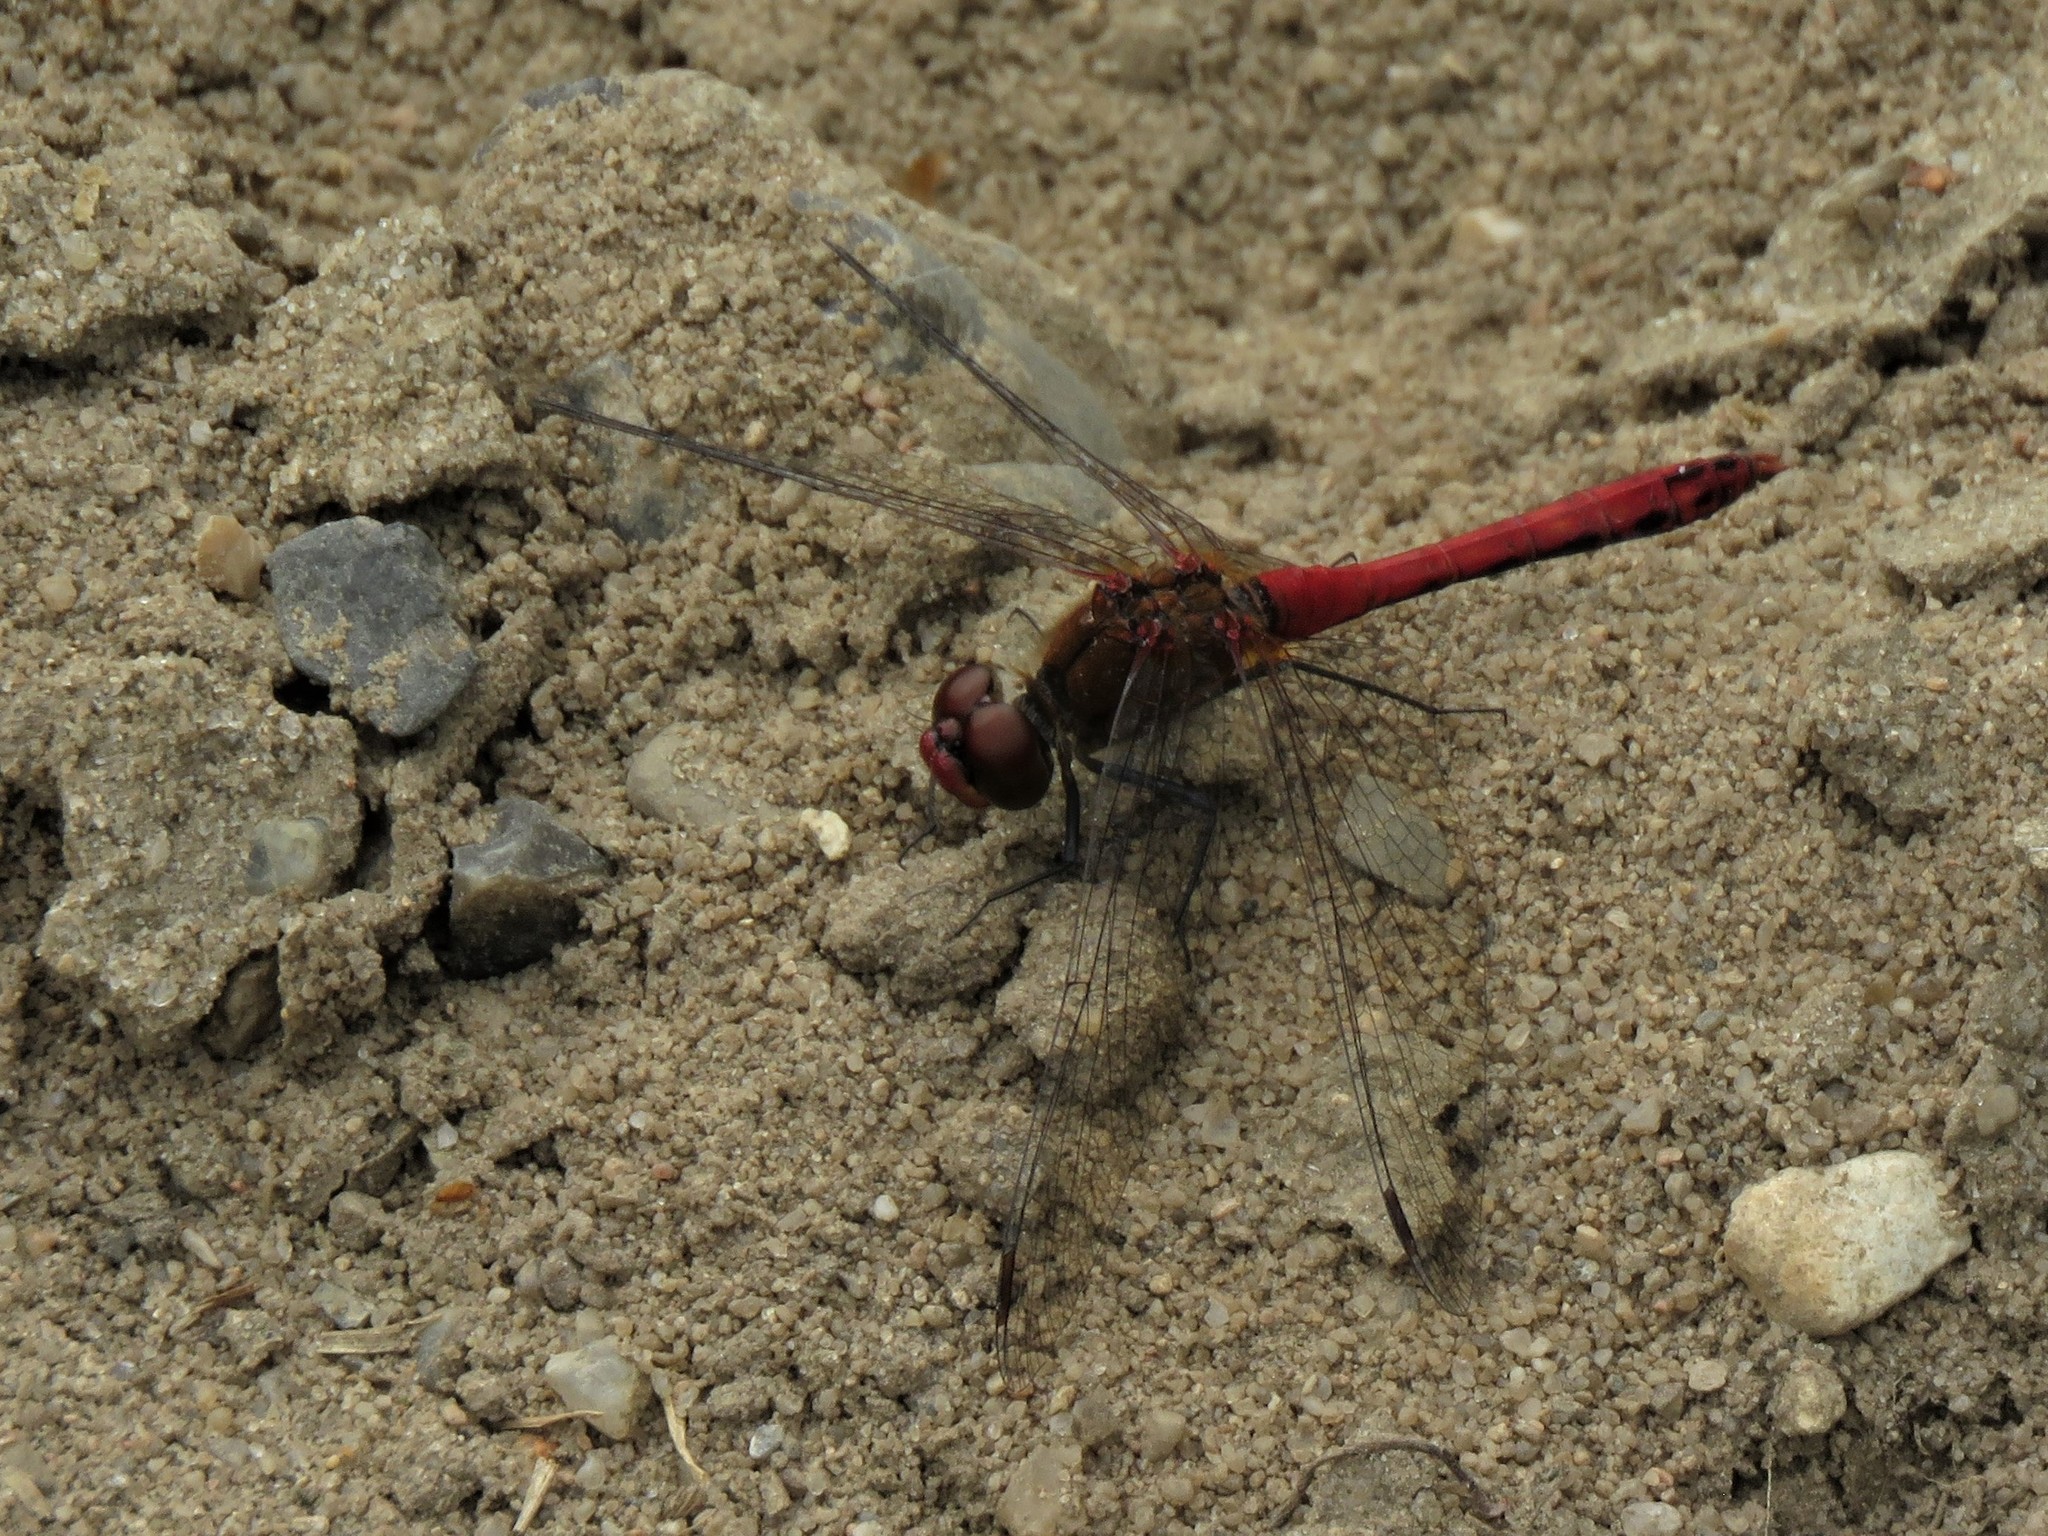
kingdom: Animalia
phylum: Arthropoda
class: Insecta
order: Odonata
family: Libellulidae
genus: Sympetrum
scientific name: Sympetrum sanguineum
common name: Ruddy darter
